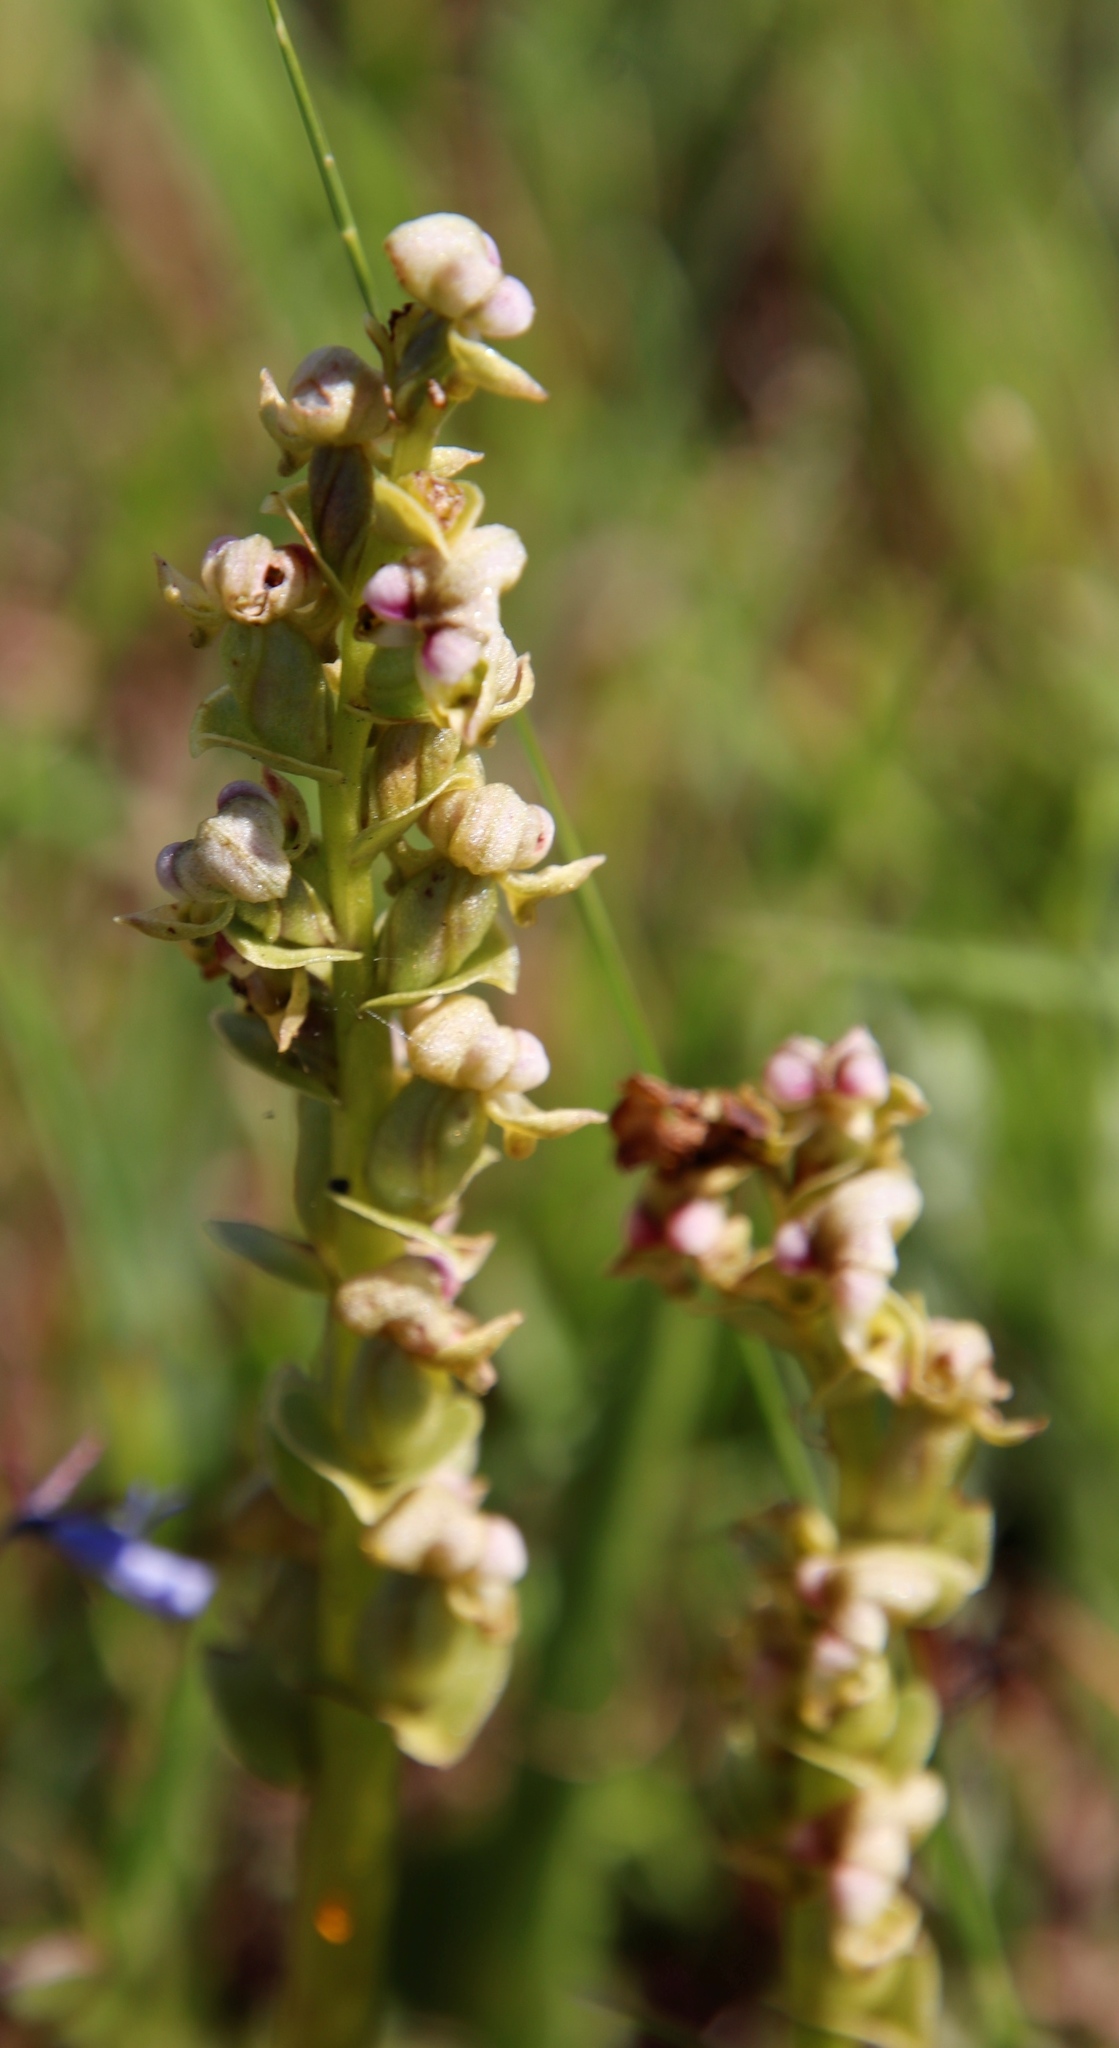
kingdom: Plantae
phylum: Tracheophyta
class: Liliopsida
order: Asparagales
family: Orchidaceae
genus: Disperis
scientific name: Disperis cardiophora
